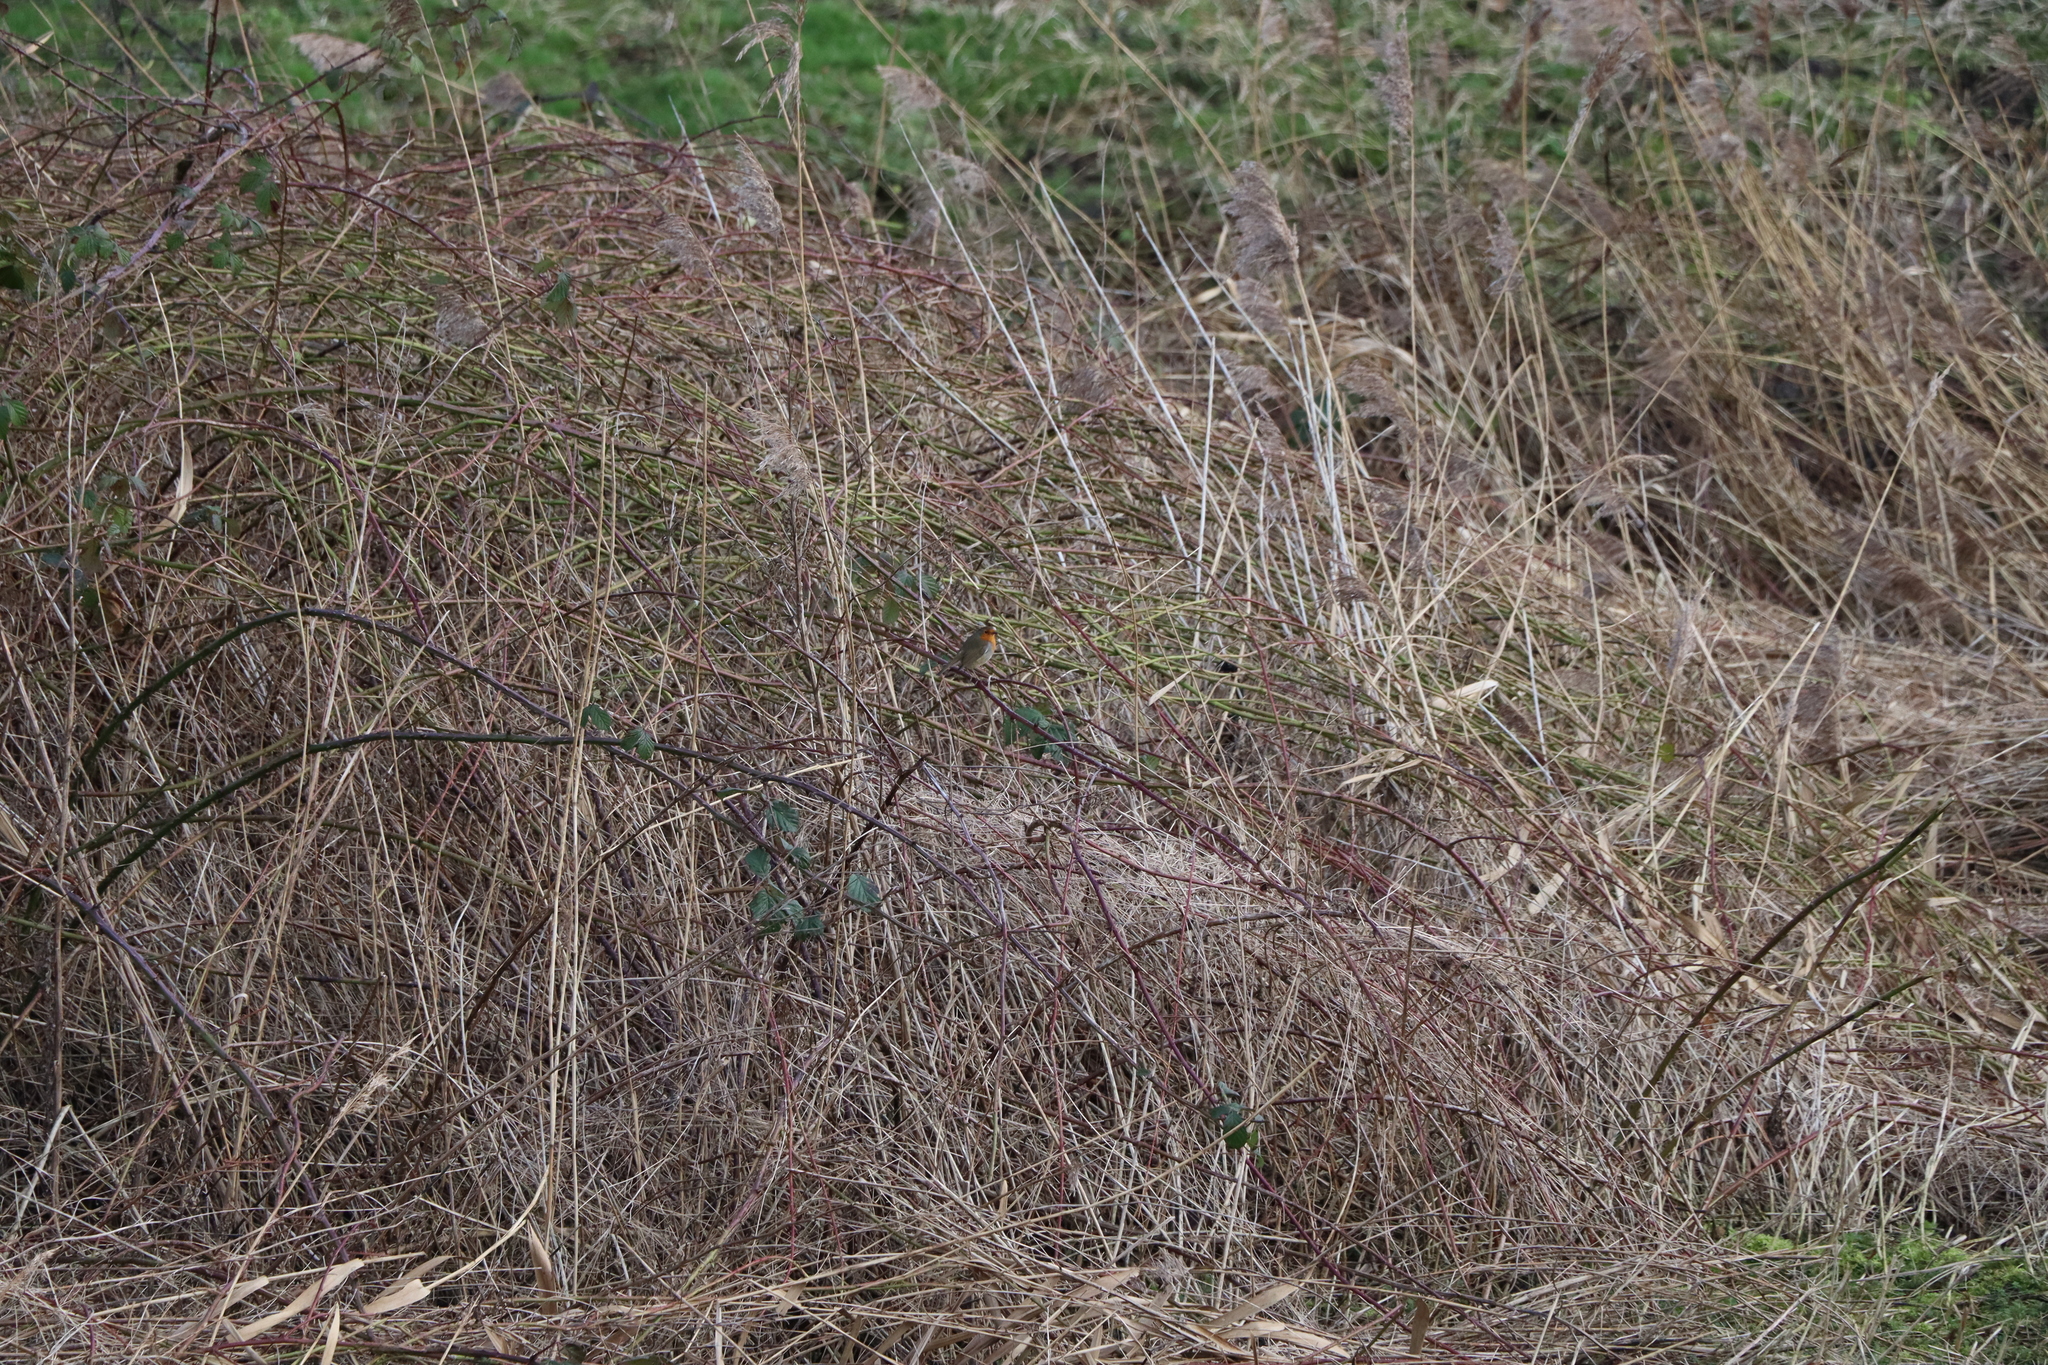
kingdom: Animalia
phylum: Chordata
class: Aves
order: Passeriformes
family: Muscicapidae
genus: Erithacus
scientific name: Erithacus rubecula
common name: European robin
